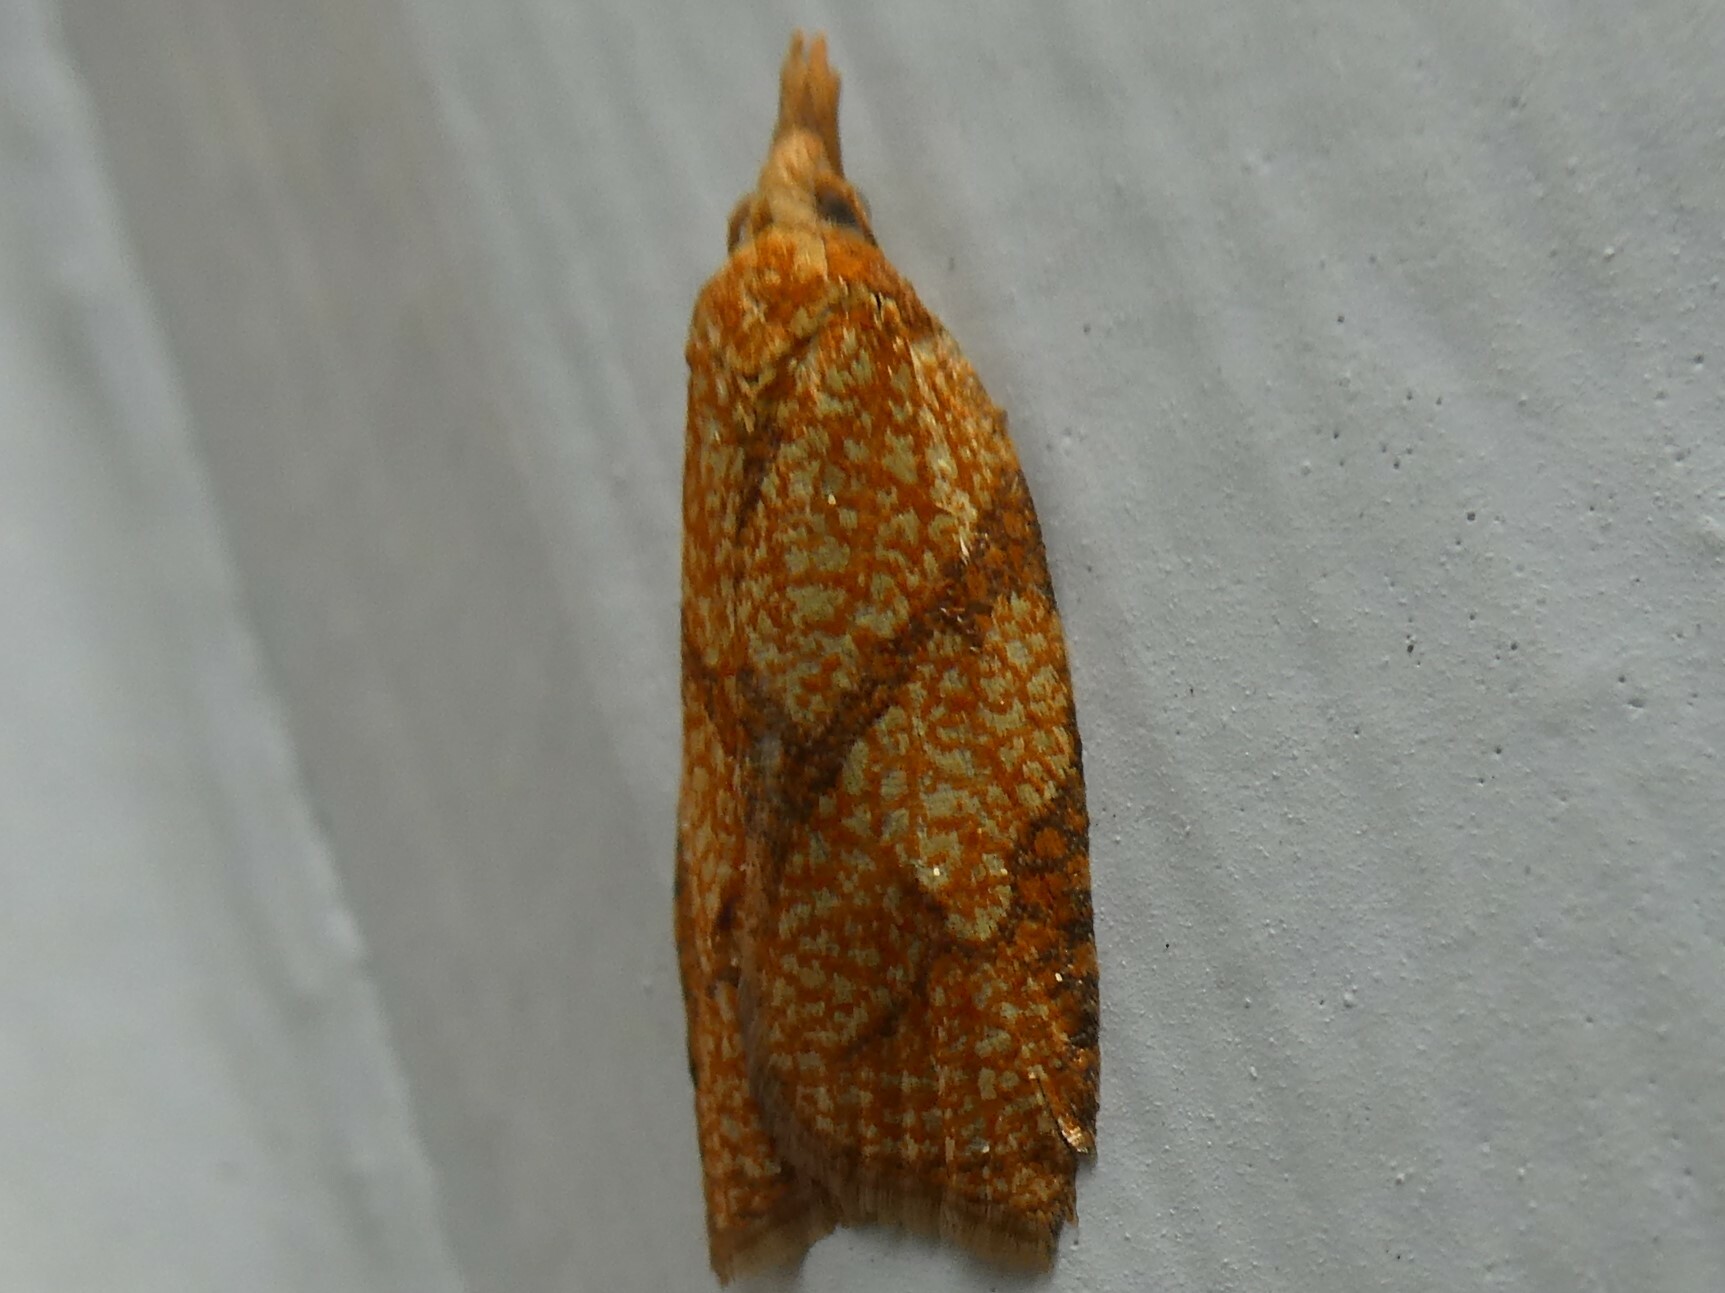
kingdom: Animalia
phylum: Arthropoda
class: Insecta
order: Lepidoptera
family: Tortricidae
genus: Cenopis
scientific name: Cenopis reticulatana
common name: Reticulated fruitworm moth
